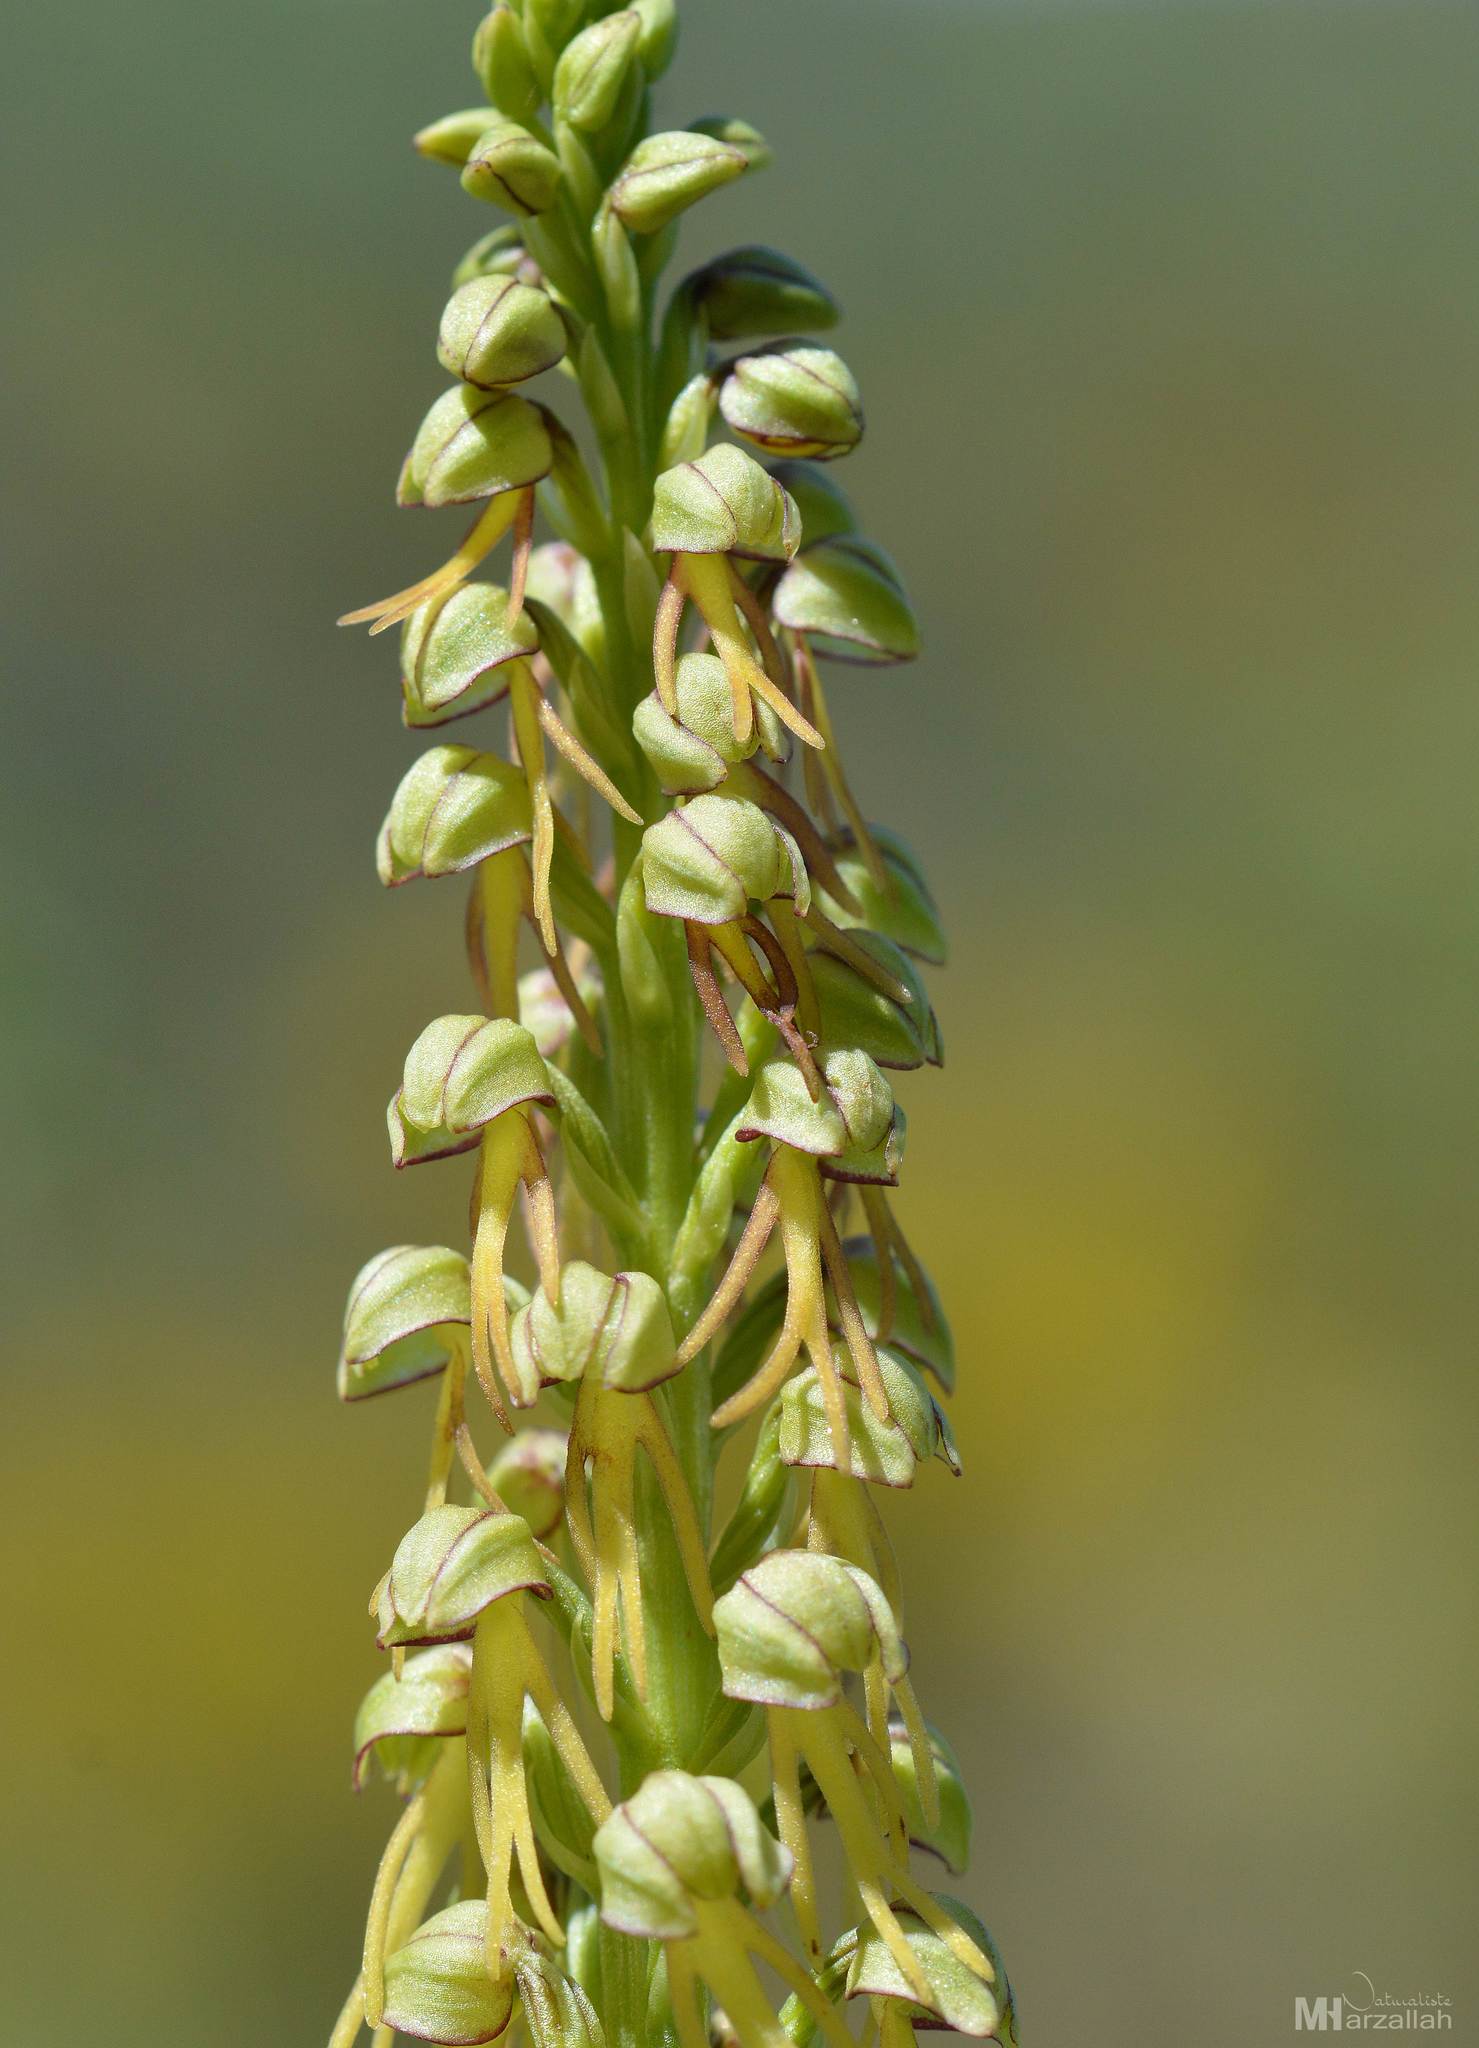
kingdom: Plantae
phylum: Tracheophyta
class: Liliopsida
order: Asparagales
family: Orchidaceae
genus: Orchis
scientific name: Orchis anthropophora
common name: Man orchid
